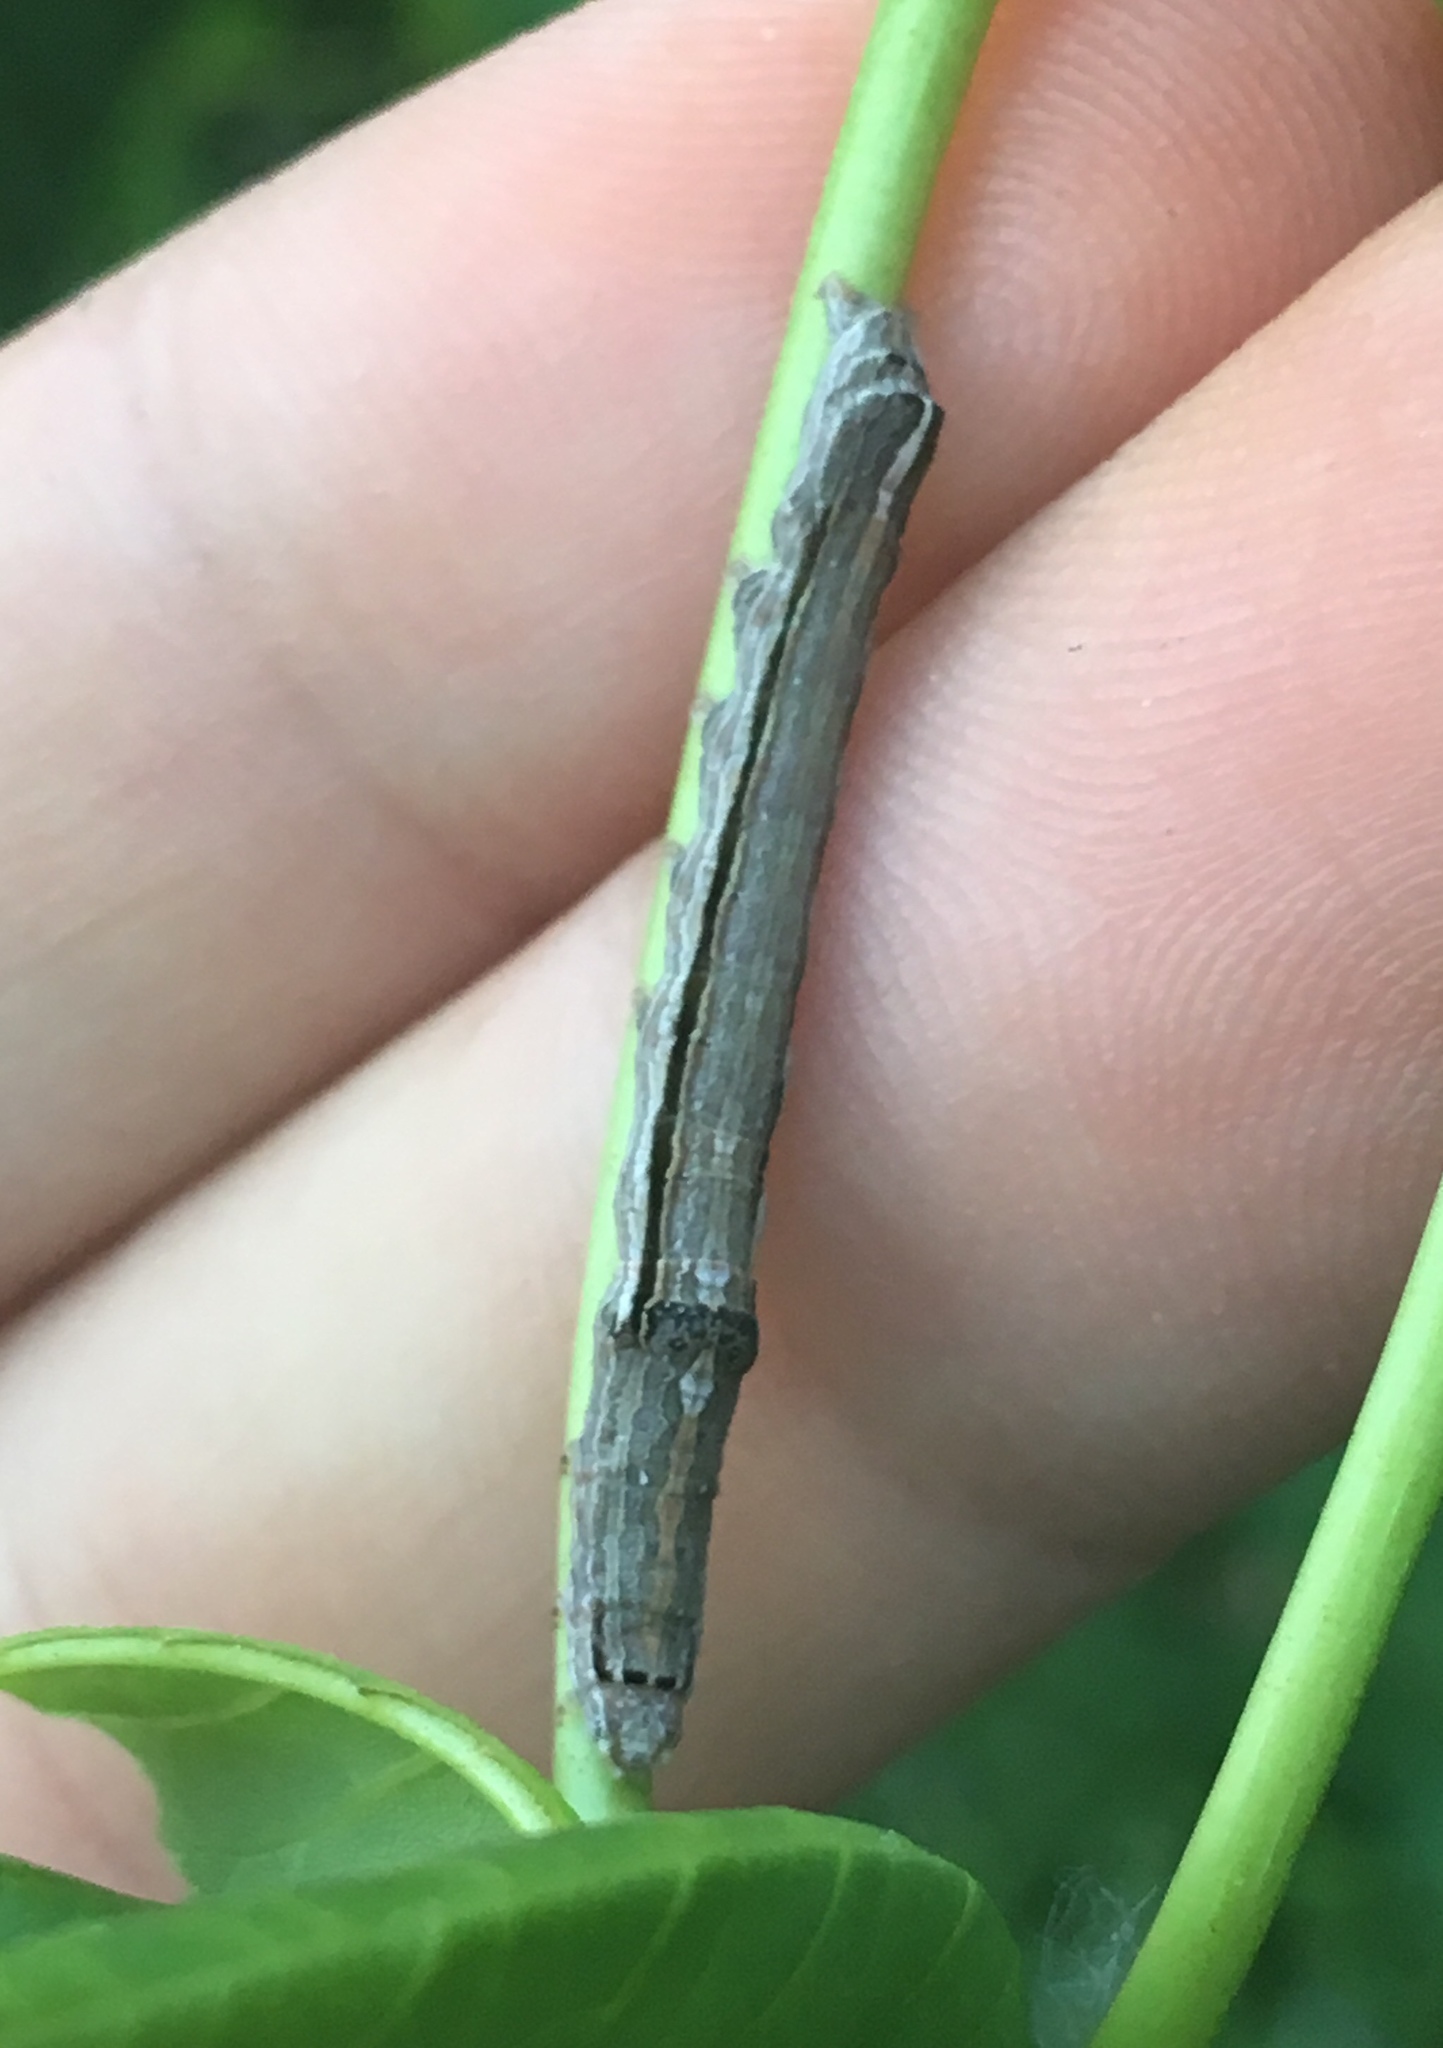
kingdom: Animalia
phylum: Arthropoda
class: Insecta
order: Lepidoptera
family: Noctuidae
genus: Sympistis
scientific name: Sympistis chionanthi
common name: Fringe-tree sallow
